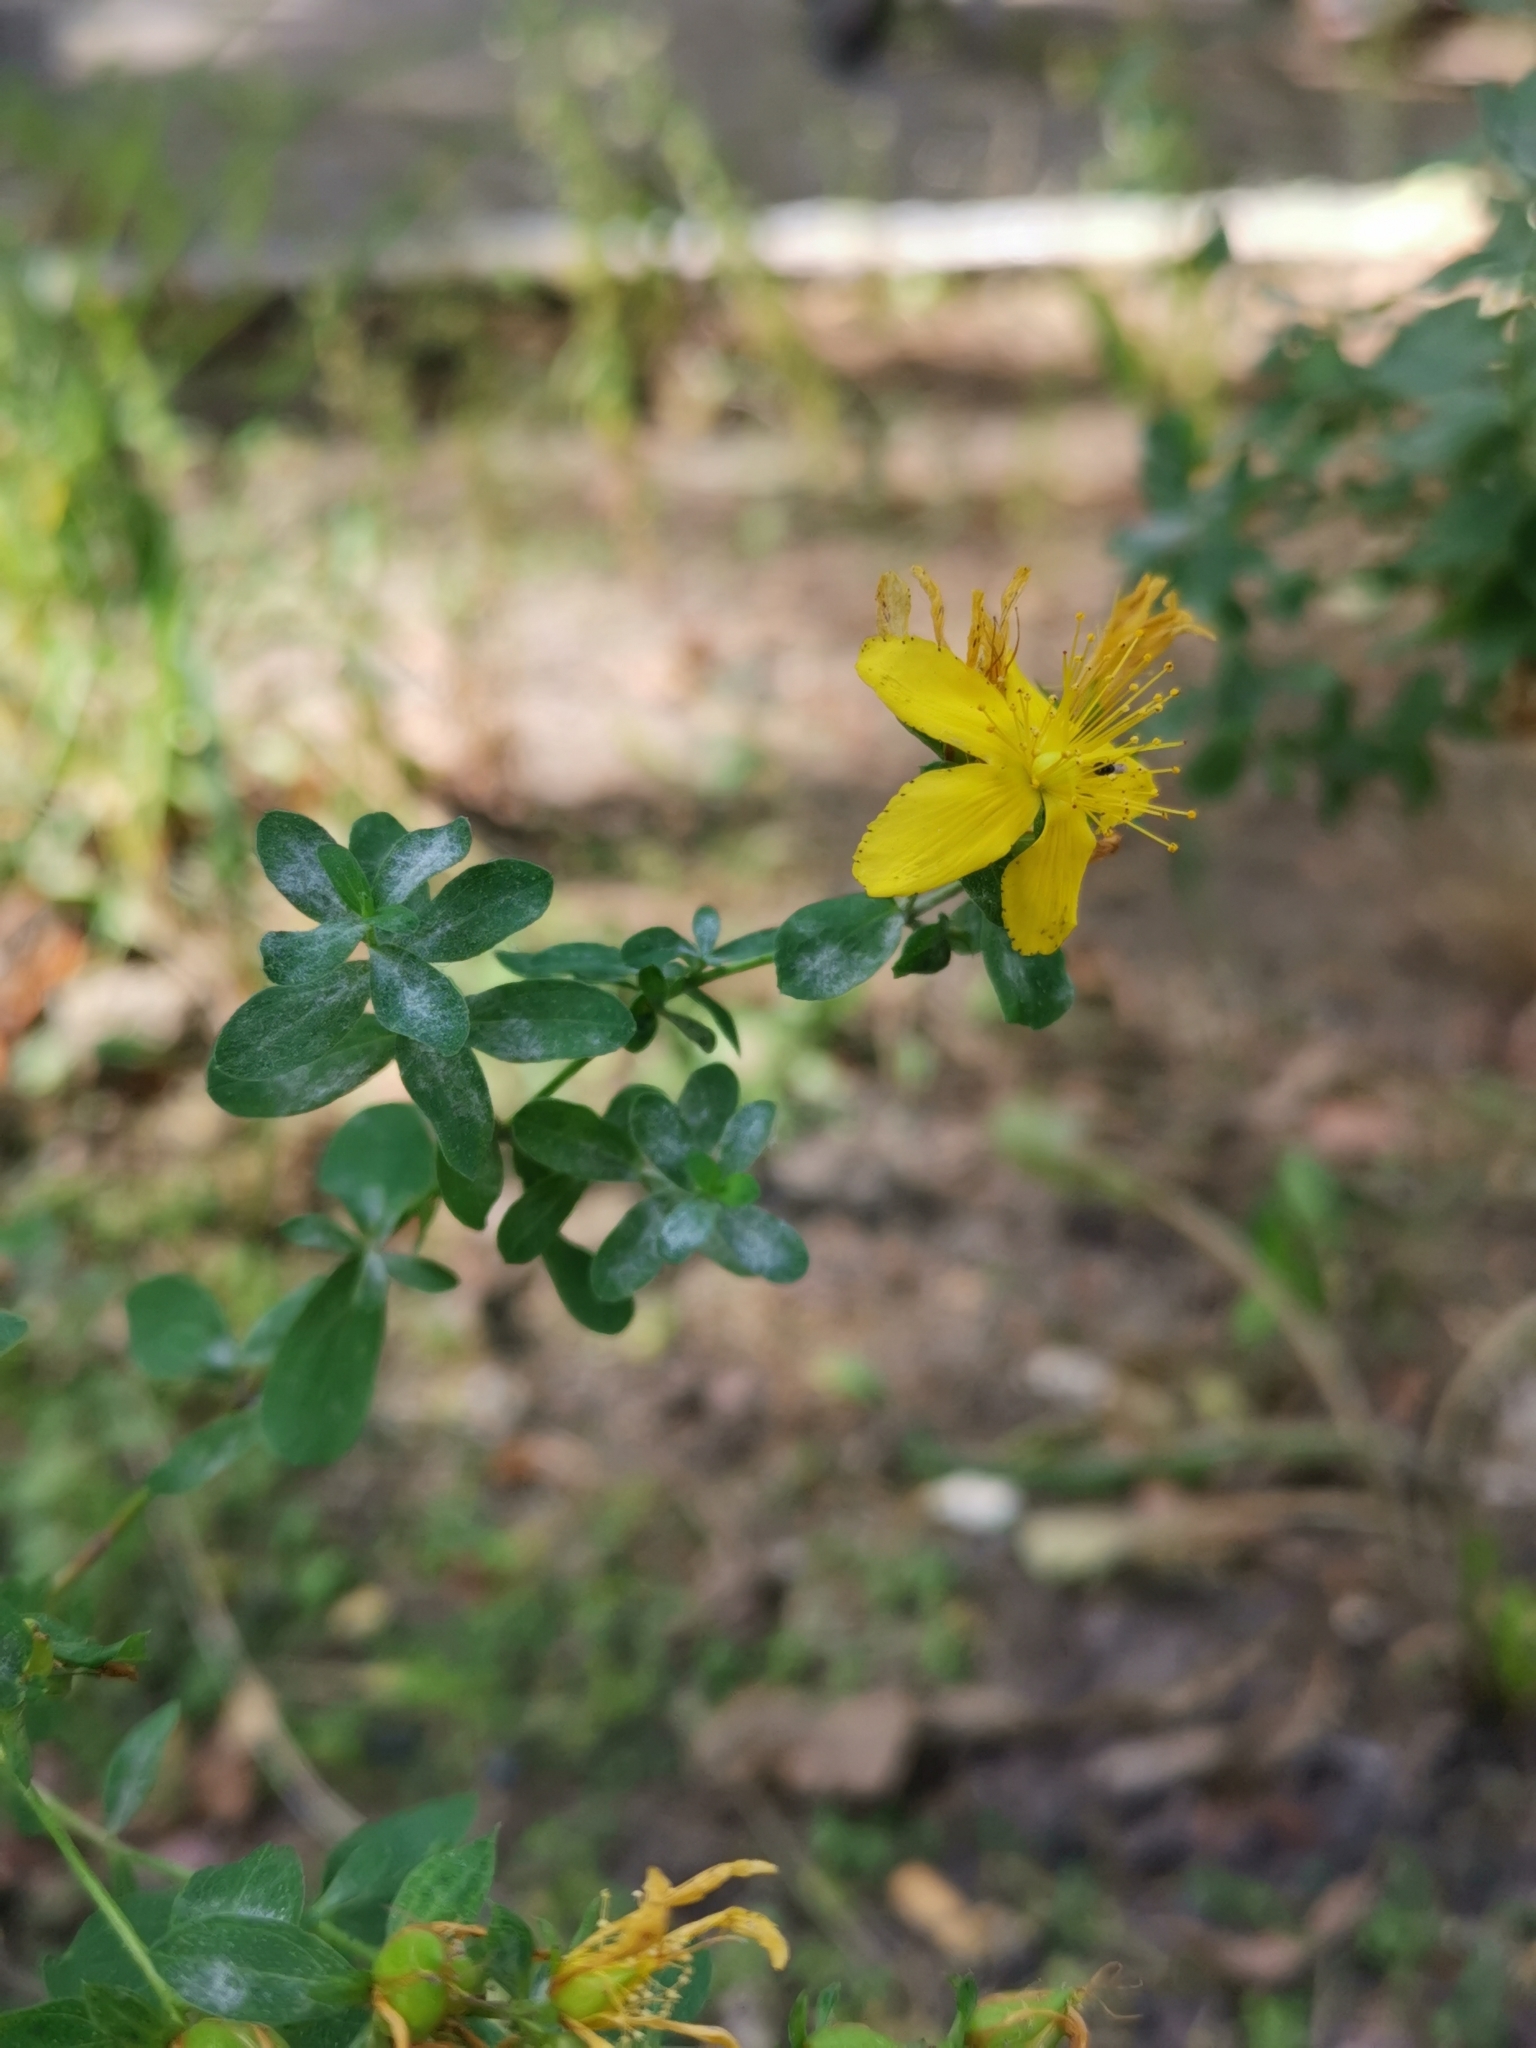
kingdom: Plantae
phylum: Tracheophyta
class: Magnoliopsida
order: Malpighiales
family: Hypericaceae
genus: Hypericum
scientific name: Hypericum perforatum
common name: Common st. johnswort
